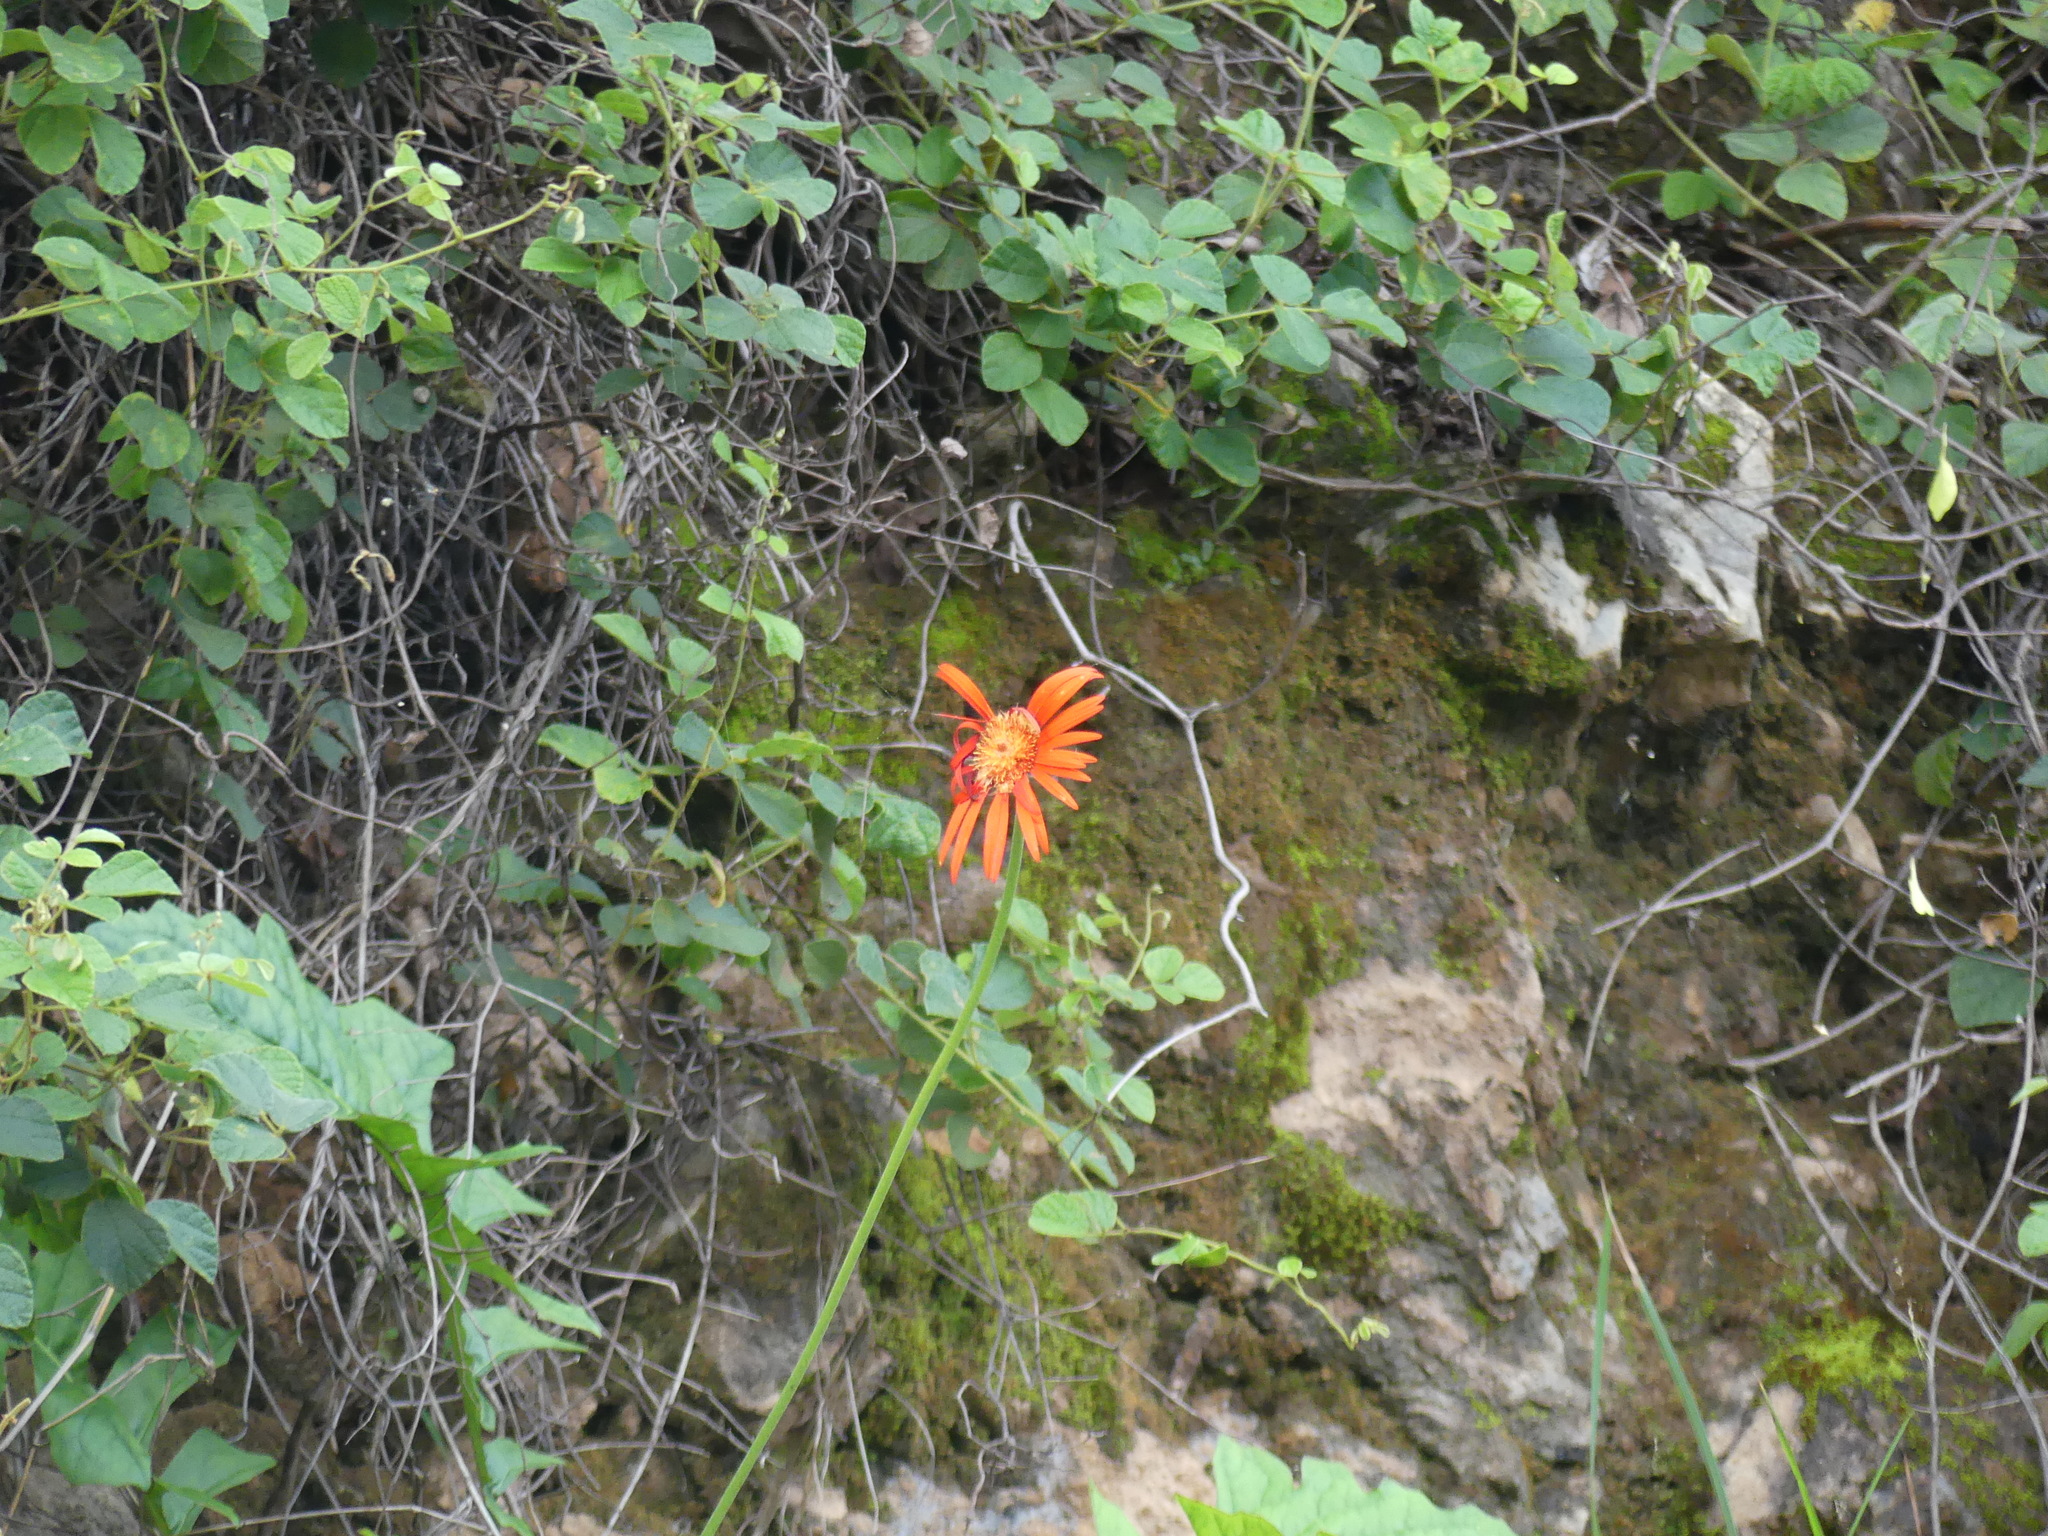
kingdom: Plantae
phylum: Tracheophyta
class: Magnoliopsida
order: Asterales
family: Asteraceae
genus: Gerbera
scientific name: Gerbera jamesonii
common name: African daisy
